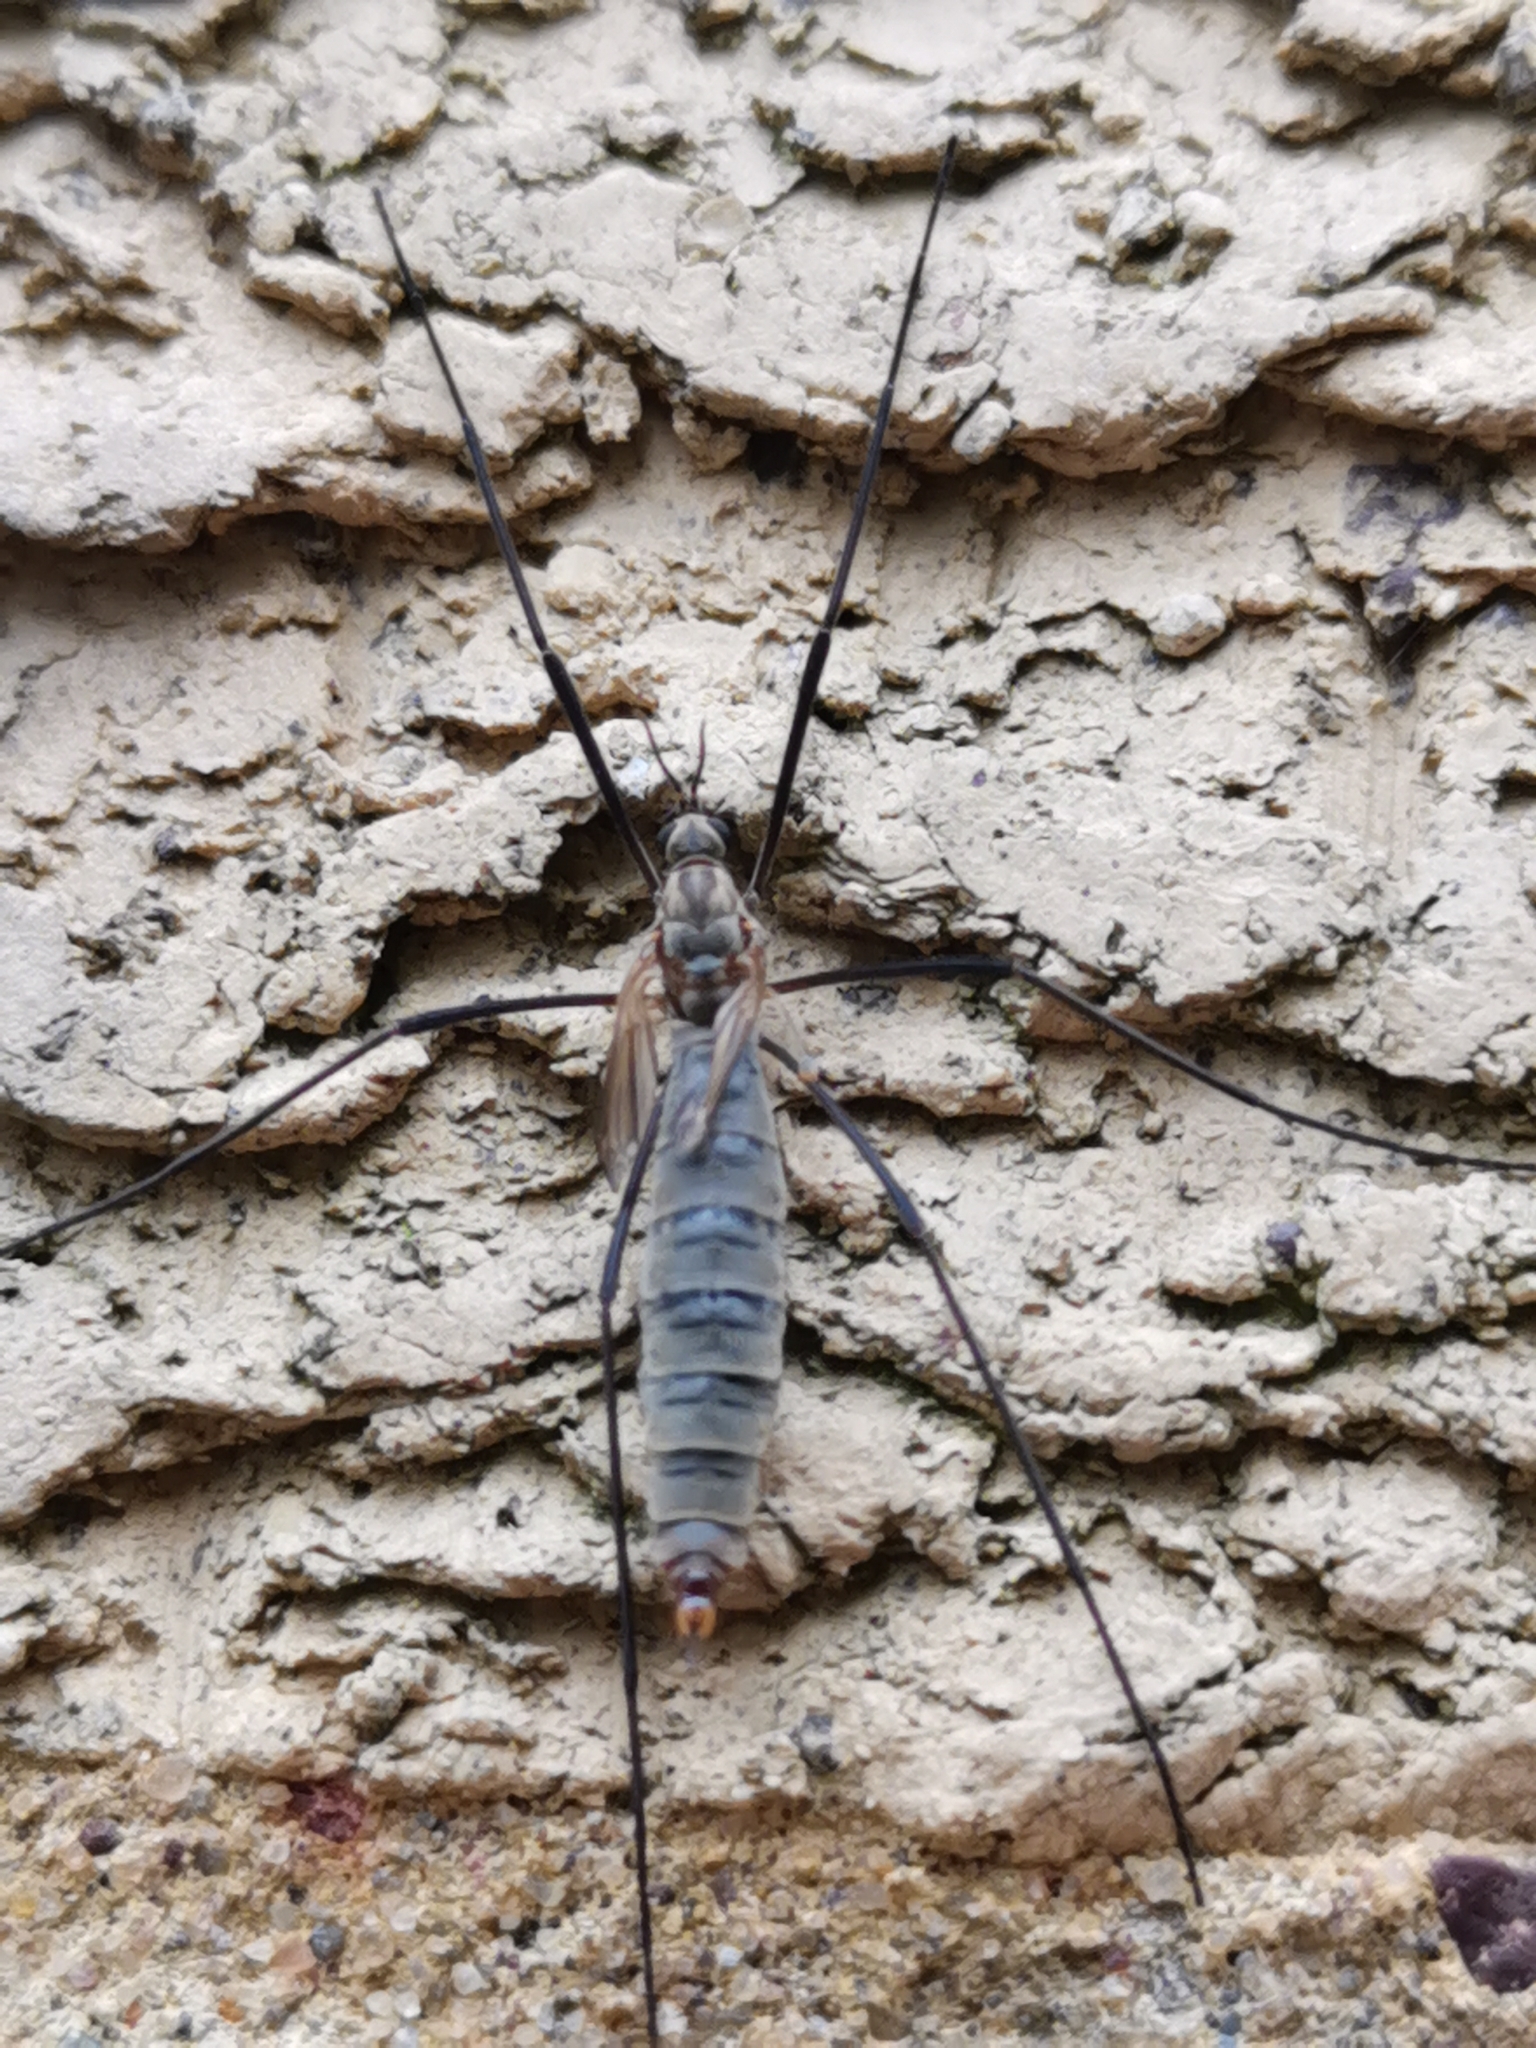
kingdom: Animalia
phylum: Arthropoda
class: Insecta
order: Diptera
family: Tipulidae
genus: Tipula
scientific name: Tipula pagana
